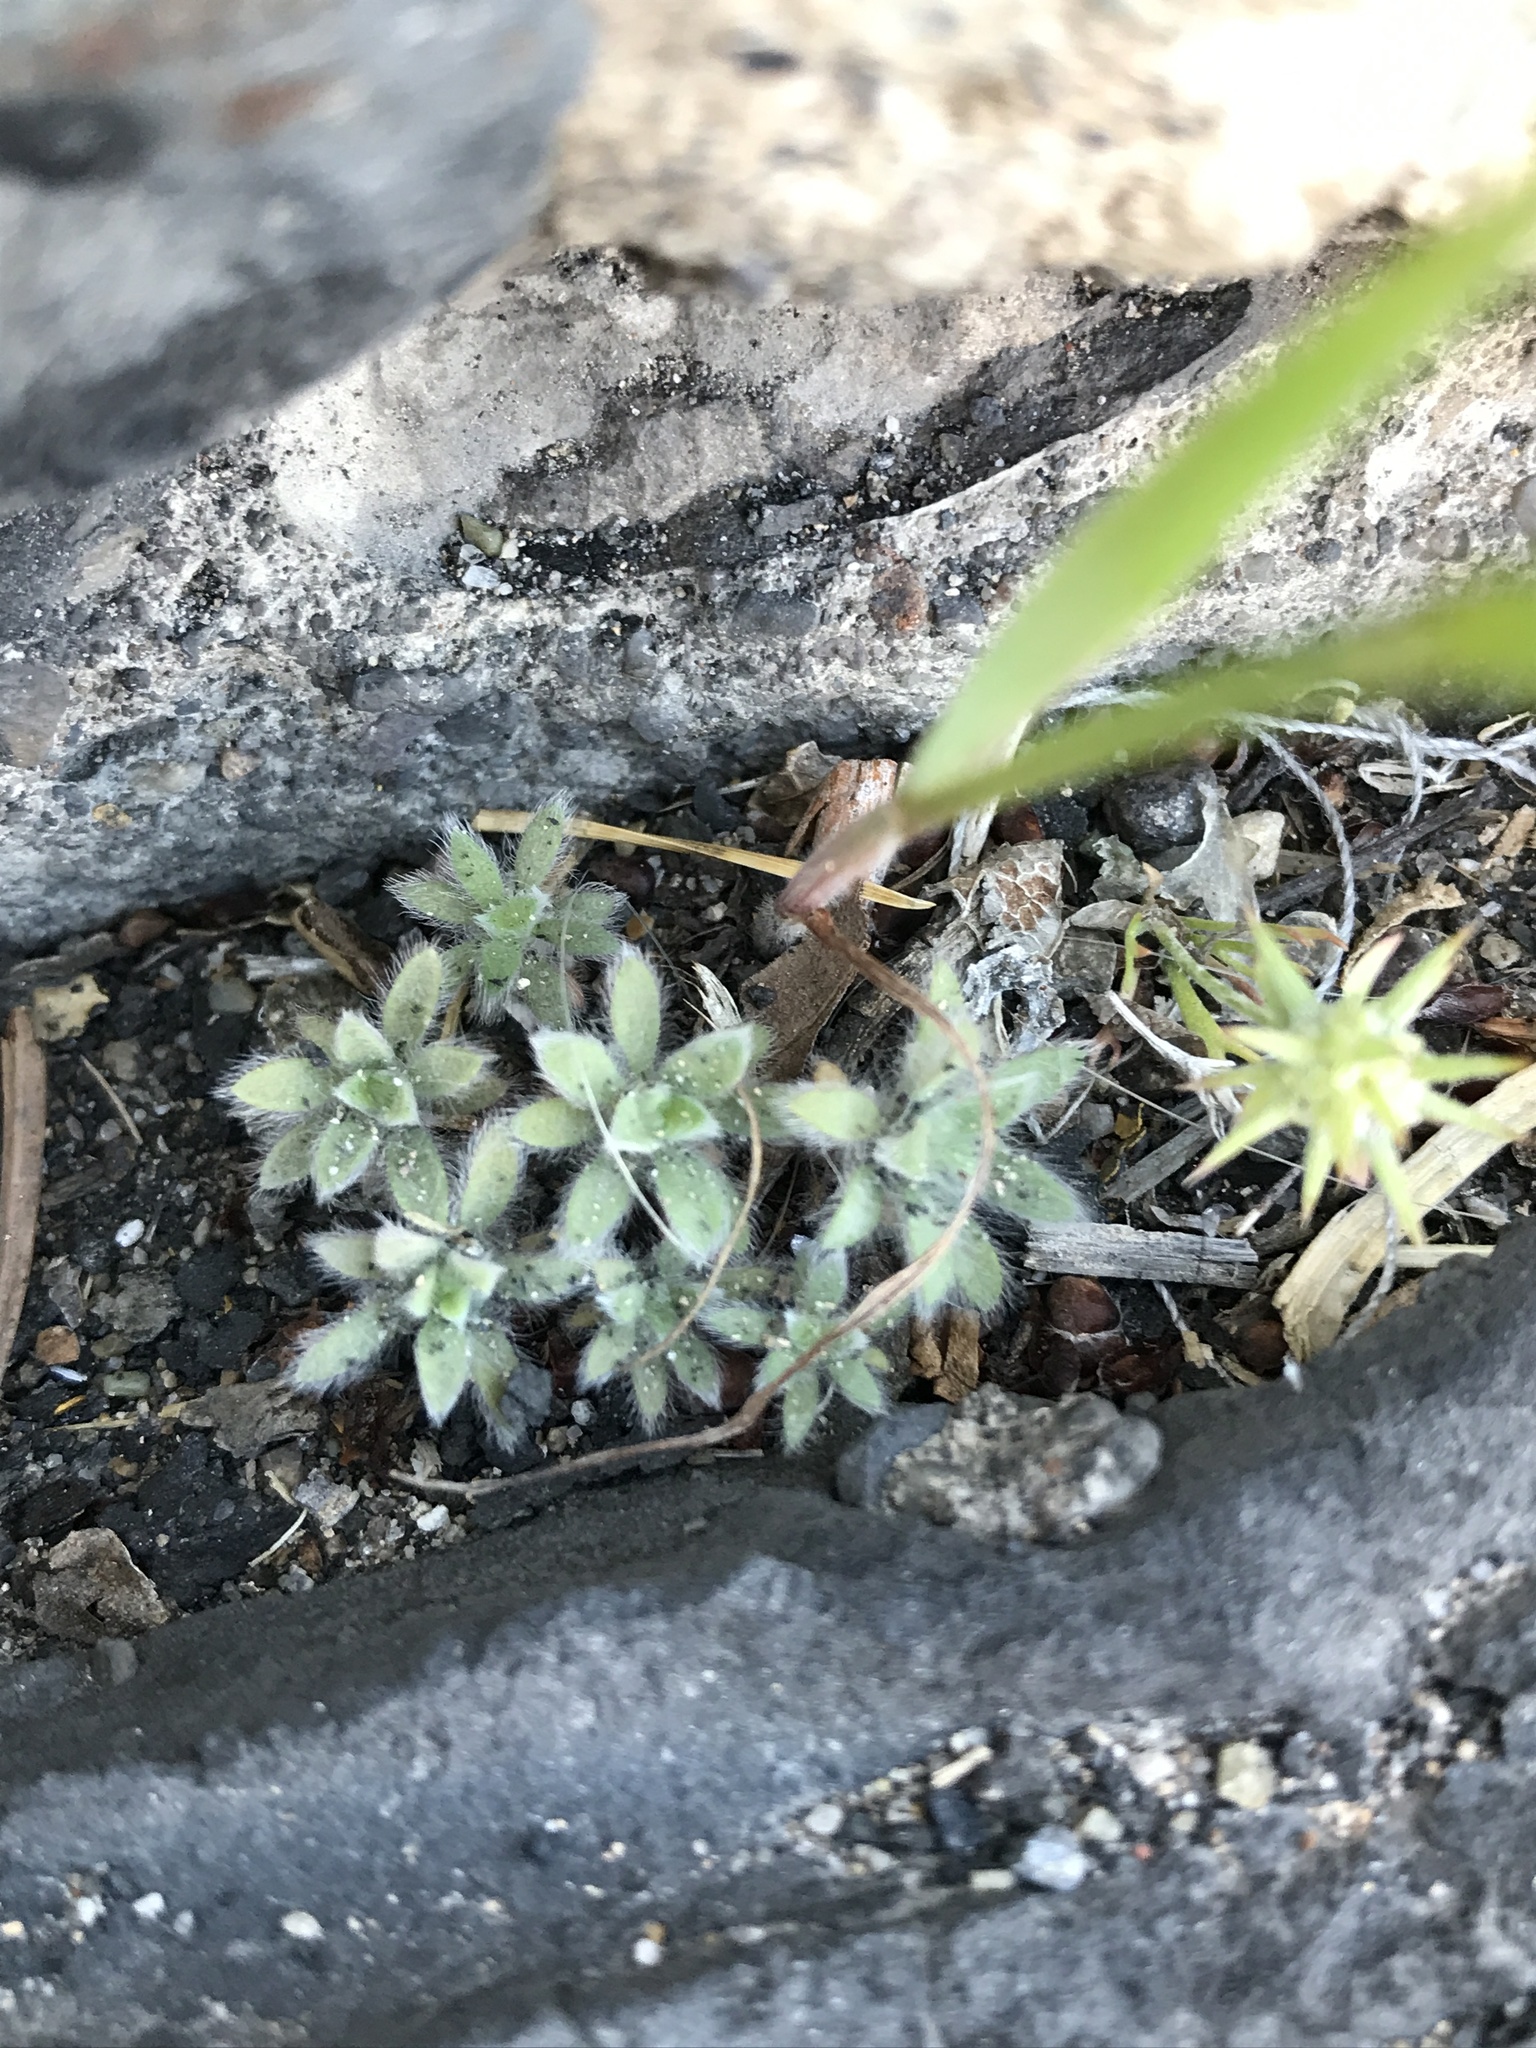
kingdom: Plantae
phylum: Tracheophyta
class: Magnoliopsida
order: Ranunculales
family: Ranunculaceae
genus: Ceratocephala
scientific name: Ceratocephala orthoceras
